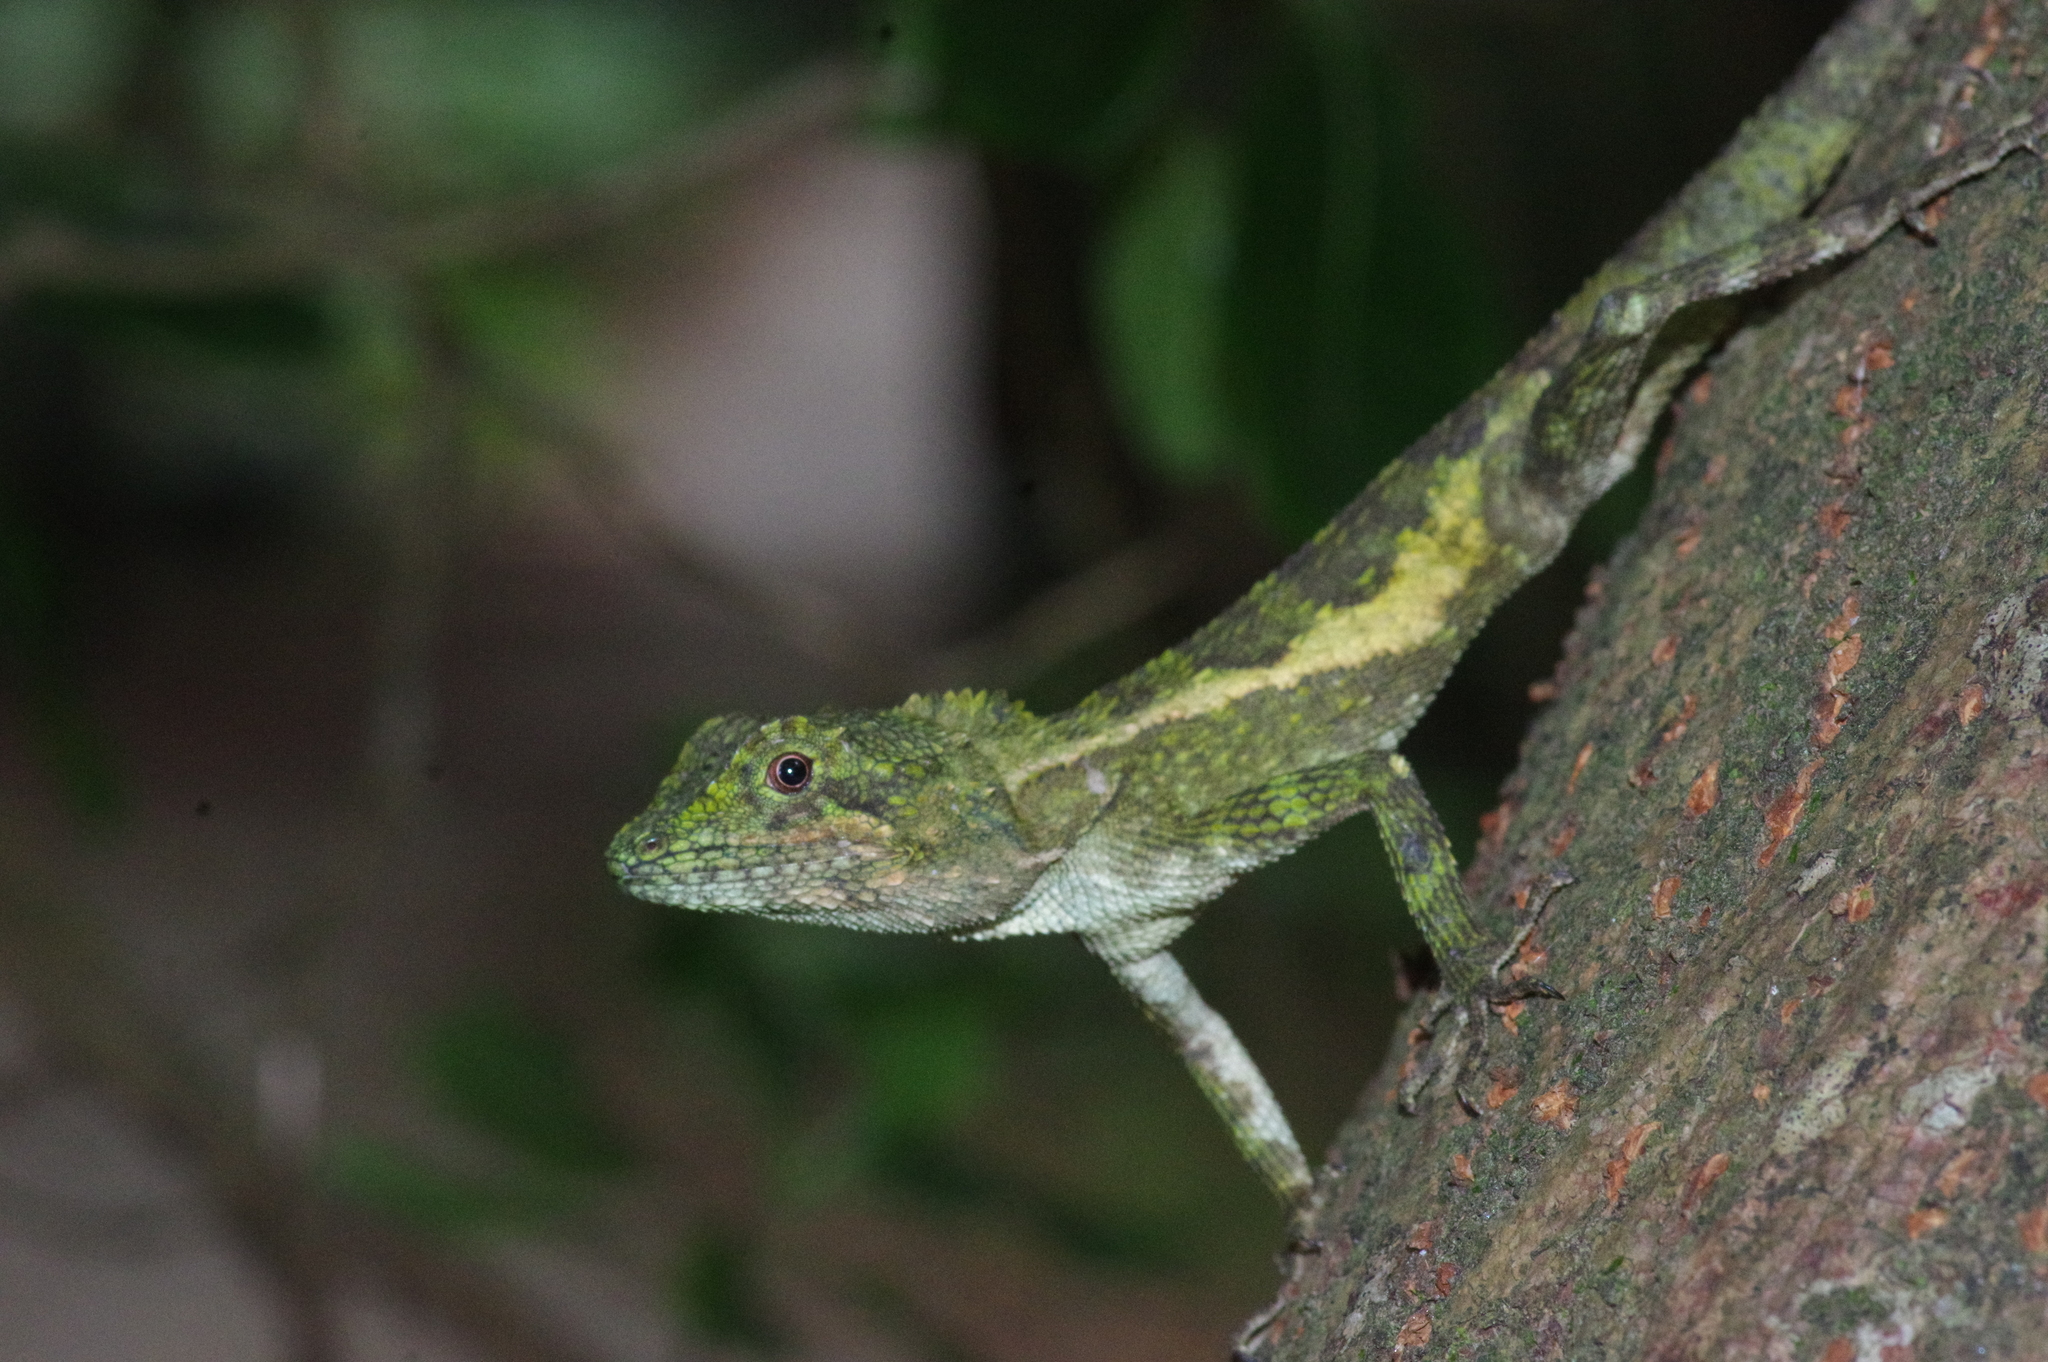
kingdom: Fungi
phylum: Basidiomycota
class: Agaricomycetes
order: Boletales
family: Diplocystidiaceae
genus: Diploderma
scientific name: Diploderma polygonatum
